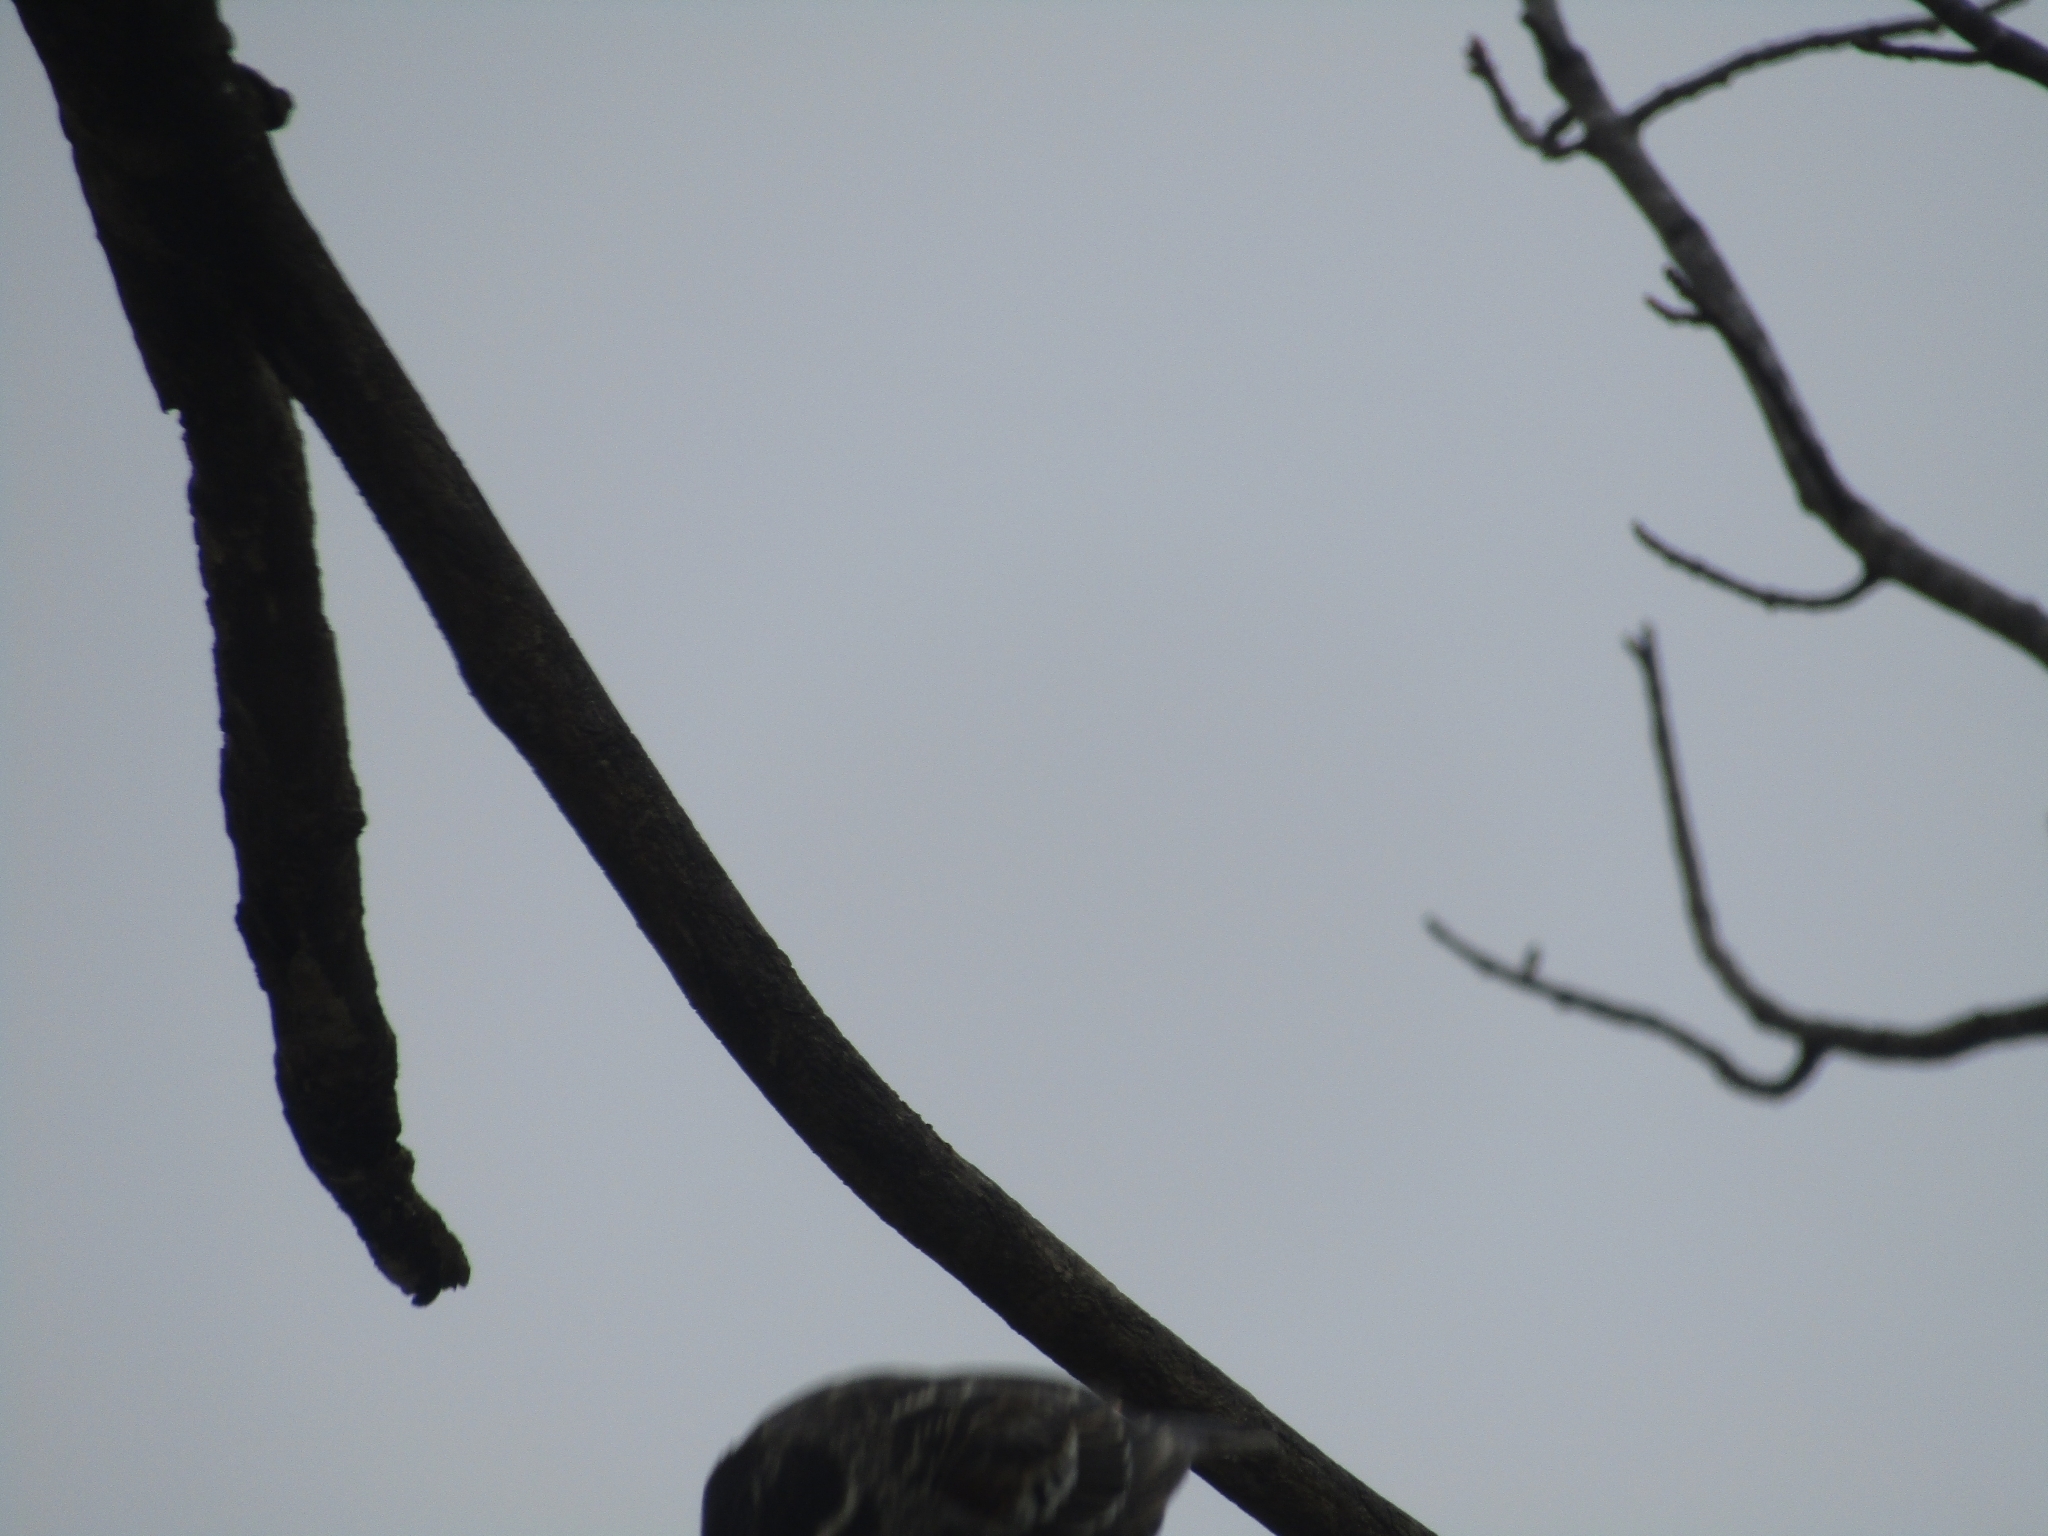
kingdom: Animalia
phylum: Chordata
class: Aves
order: Passeriformes
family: Icteridae
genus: Agelaius
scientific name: Agelaius phoeniceus
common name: Red-winged blackbird
